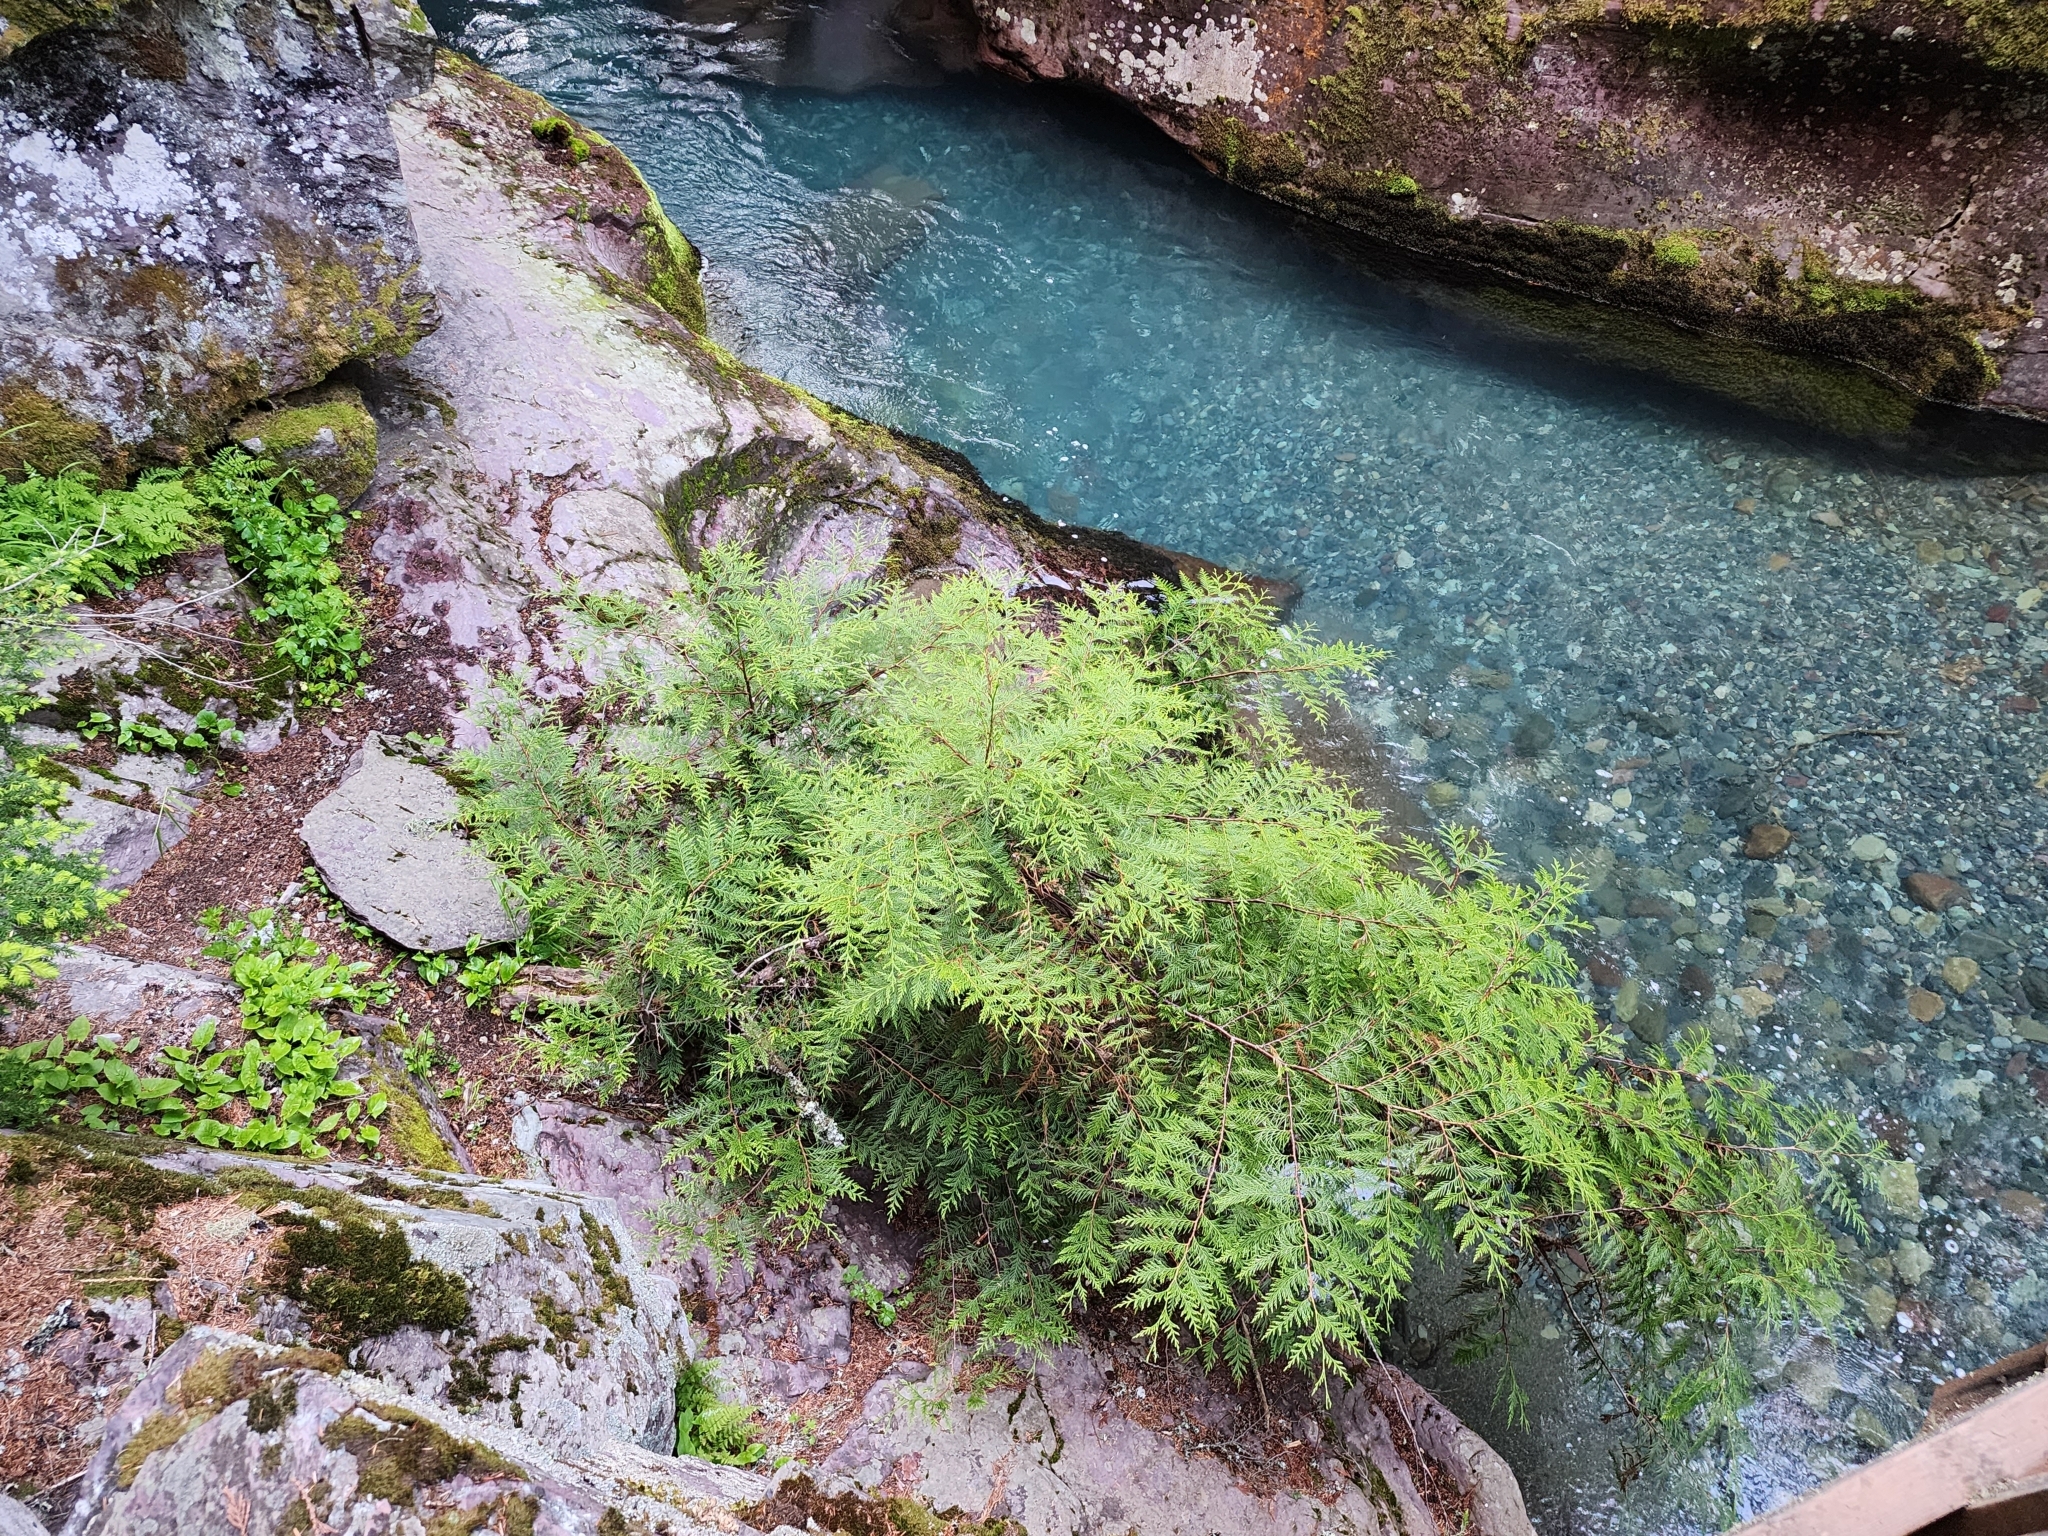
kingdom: Plantae
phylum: Tracheophyta
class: Pinopsida
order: Pinales
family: Cupressaceae
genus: Thuja
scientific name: Thuja plicata
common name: Western red-cedar
